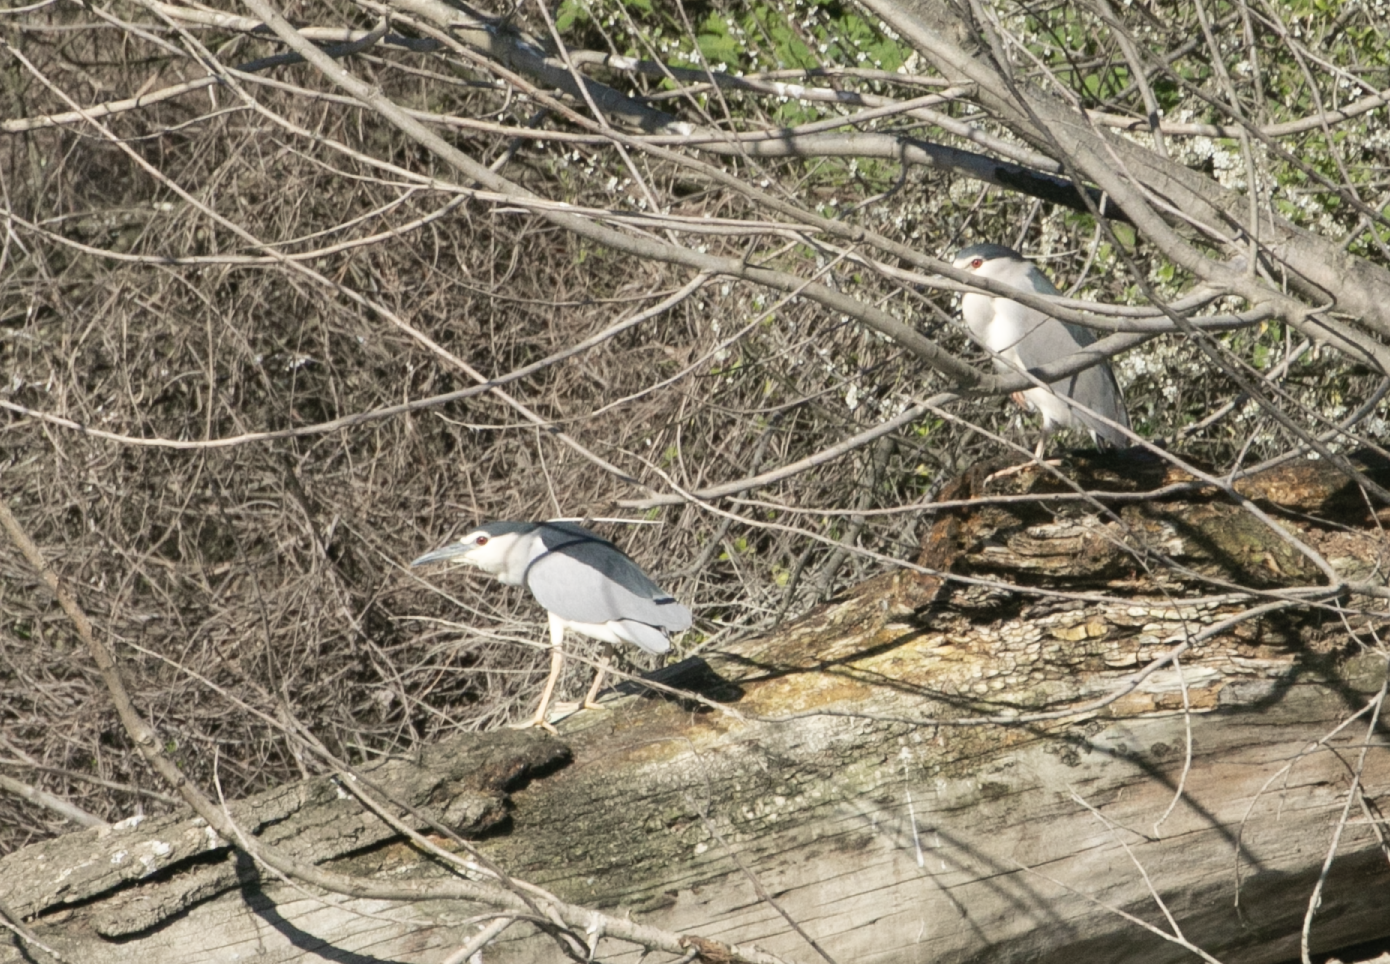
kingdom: Animalia
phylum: Chordata
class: Aves
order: Pelecaniformes
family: Ardeidae
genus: Nycticorax
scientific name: Nycticorax nycticorax
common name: Black-crowned night heron
